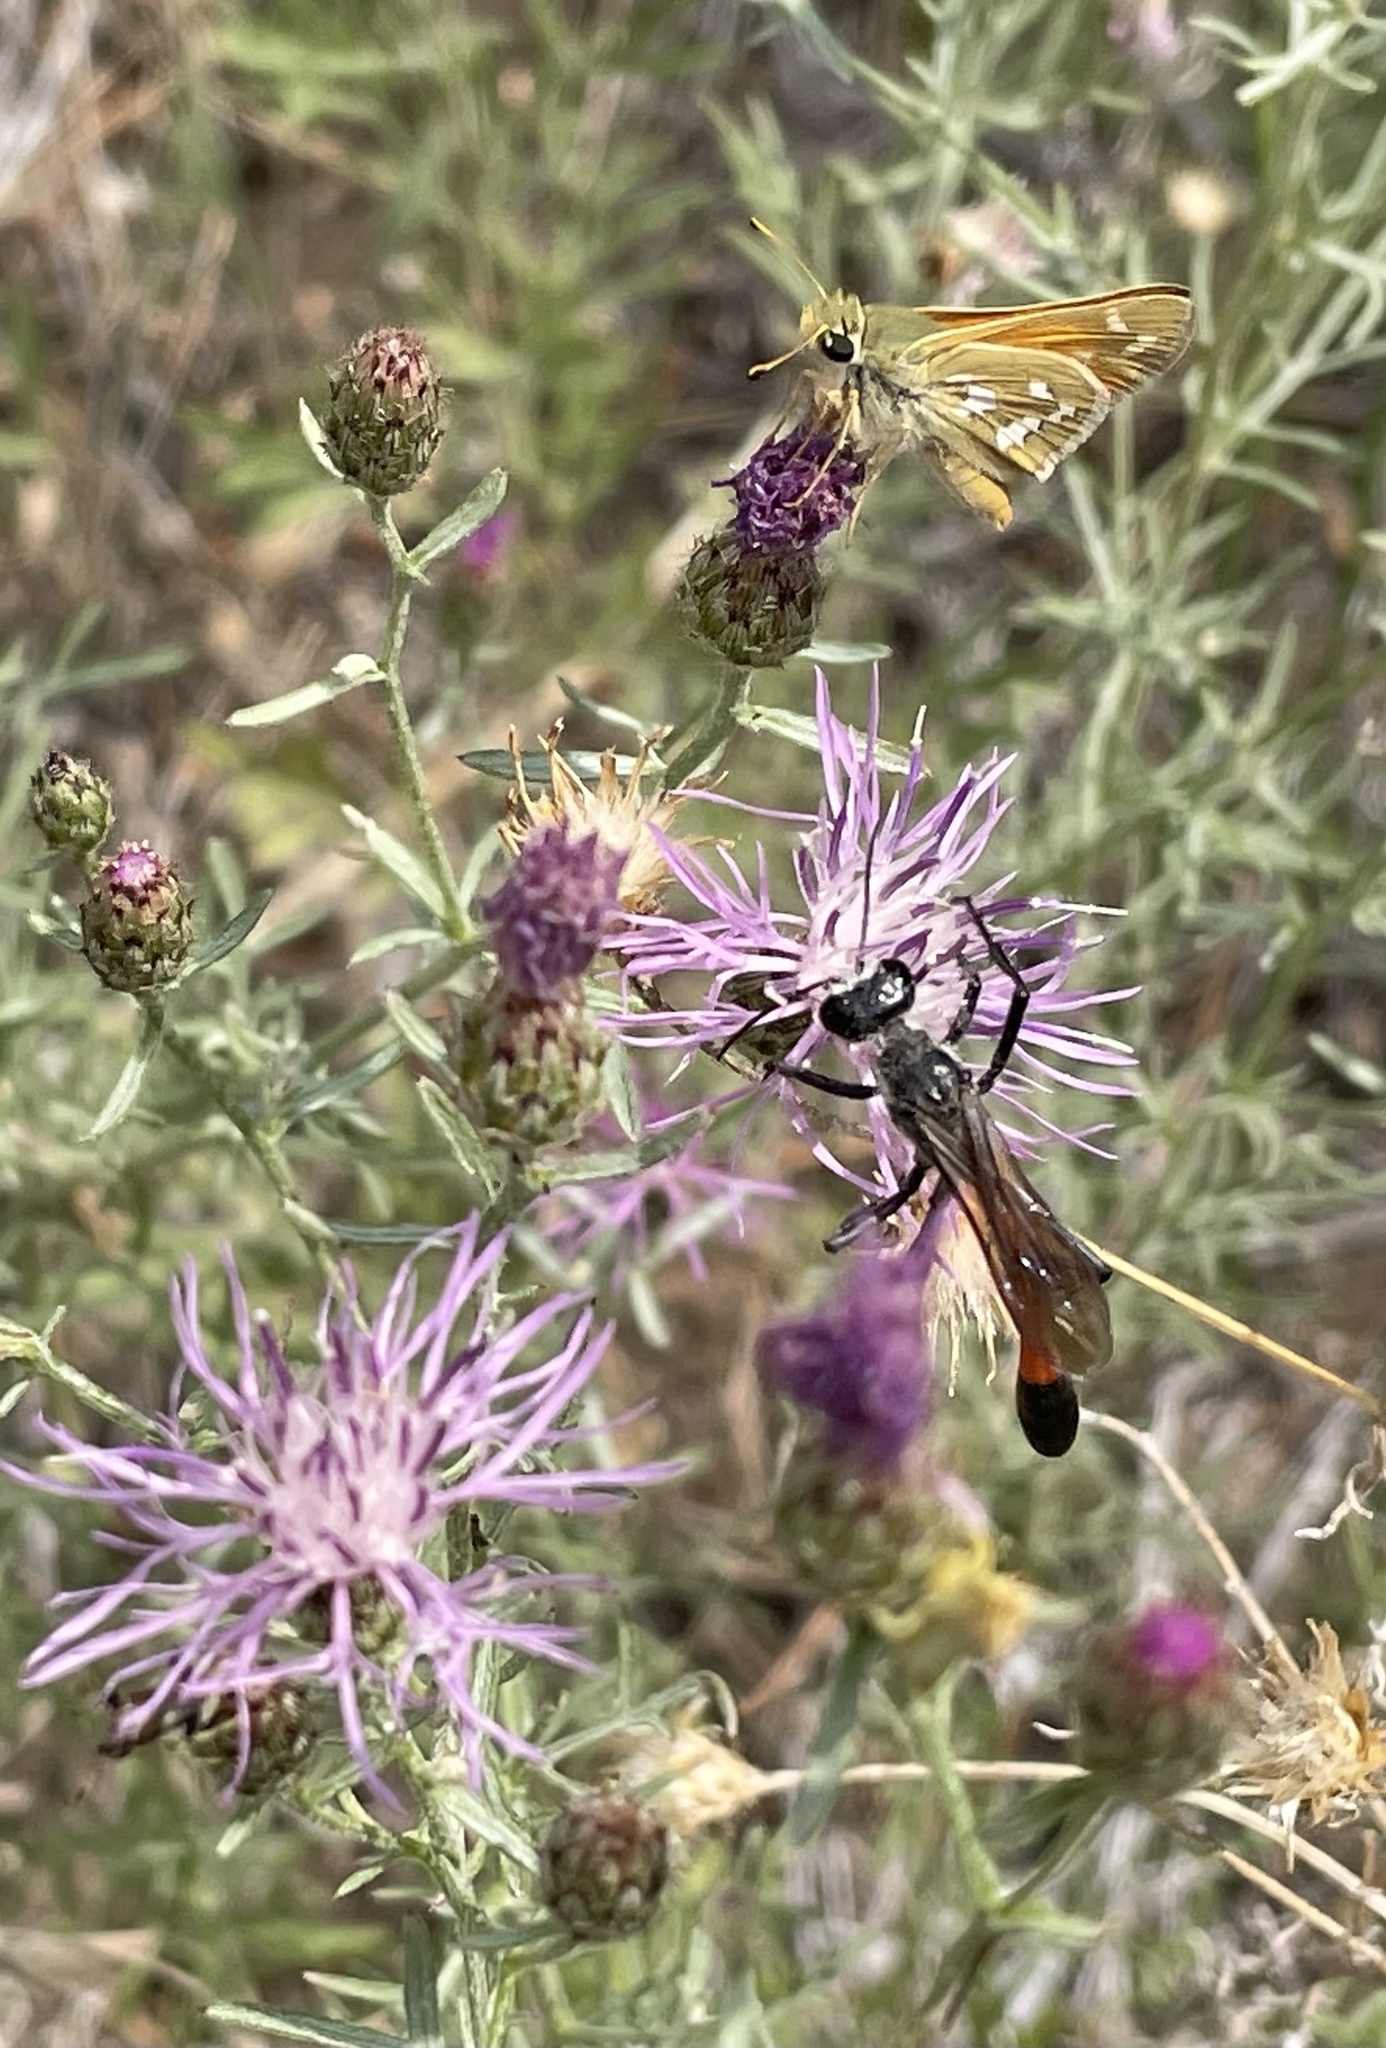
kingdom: Animalia
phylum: Arthropoda
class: Insecta
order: Lepidoptera
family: Hesperiidae
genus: Hesperia
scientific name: Hesperia comma
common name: Common branded skipper
